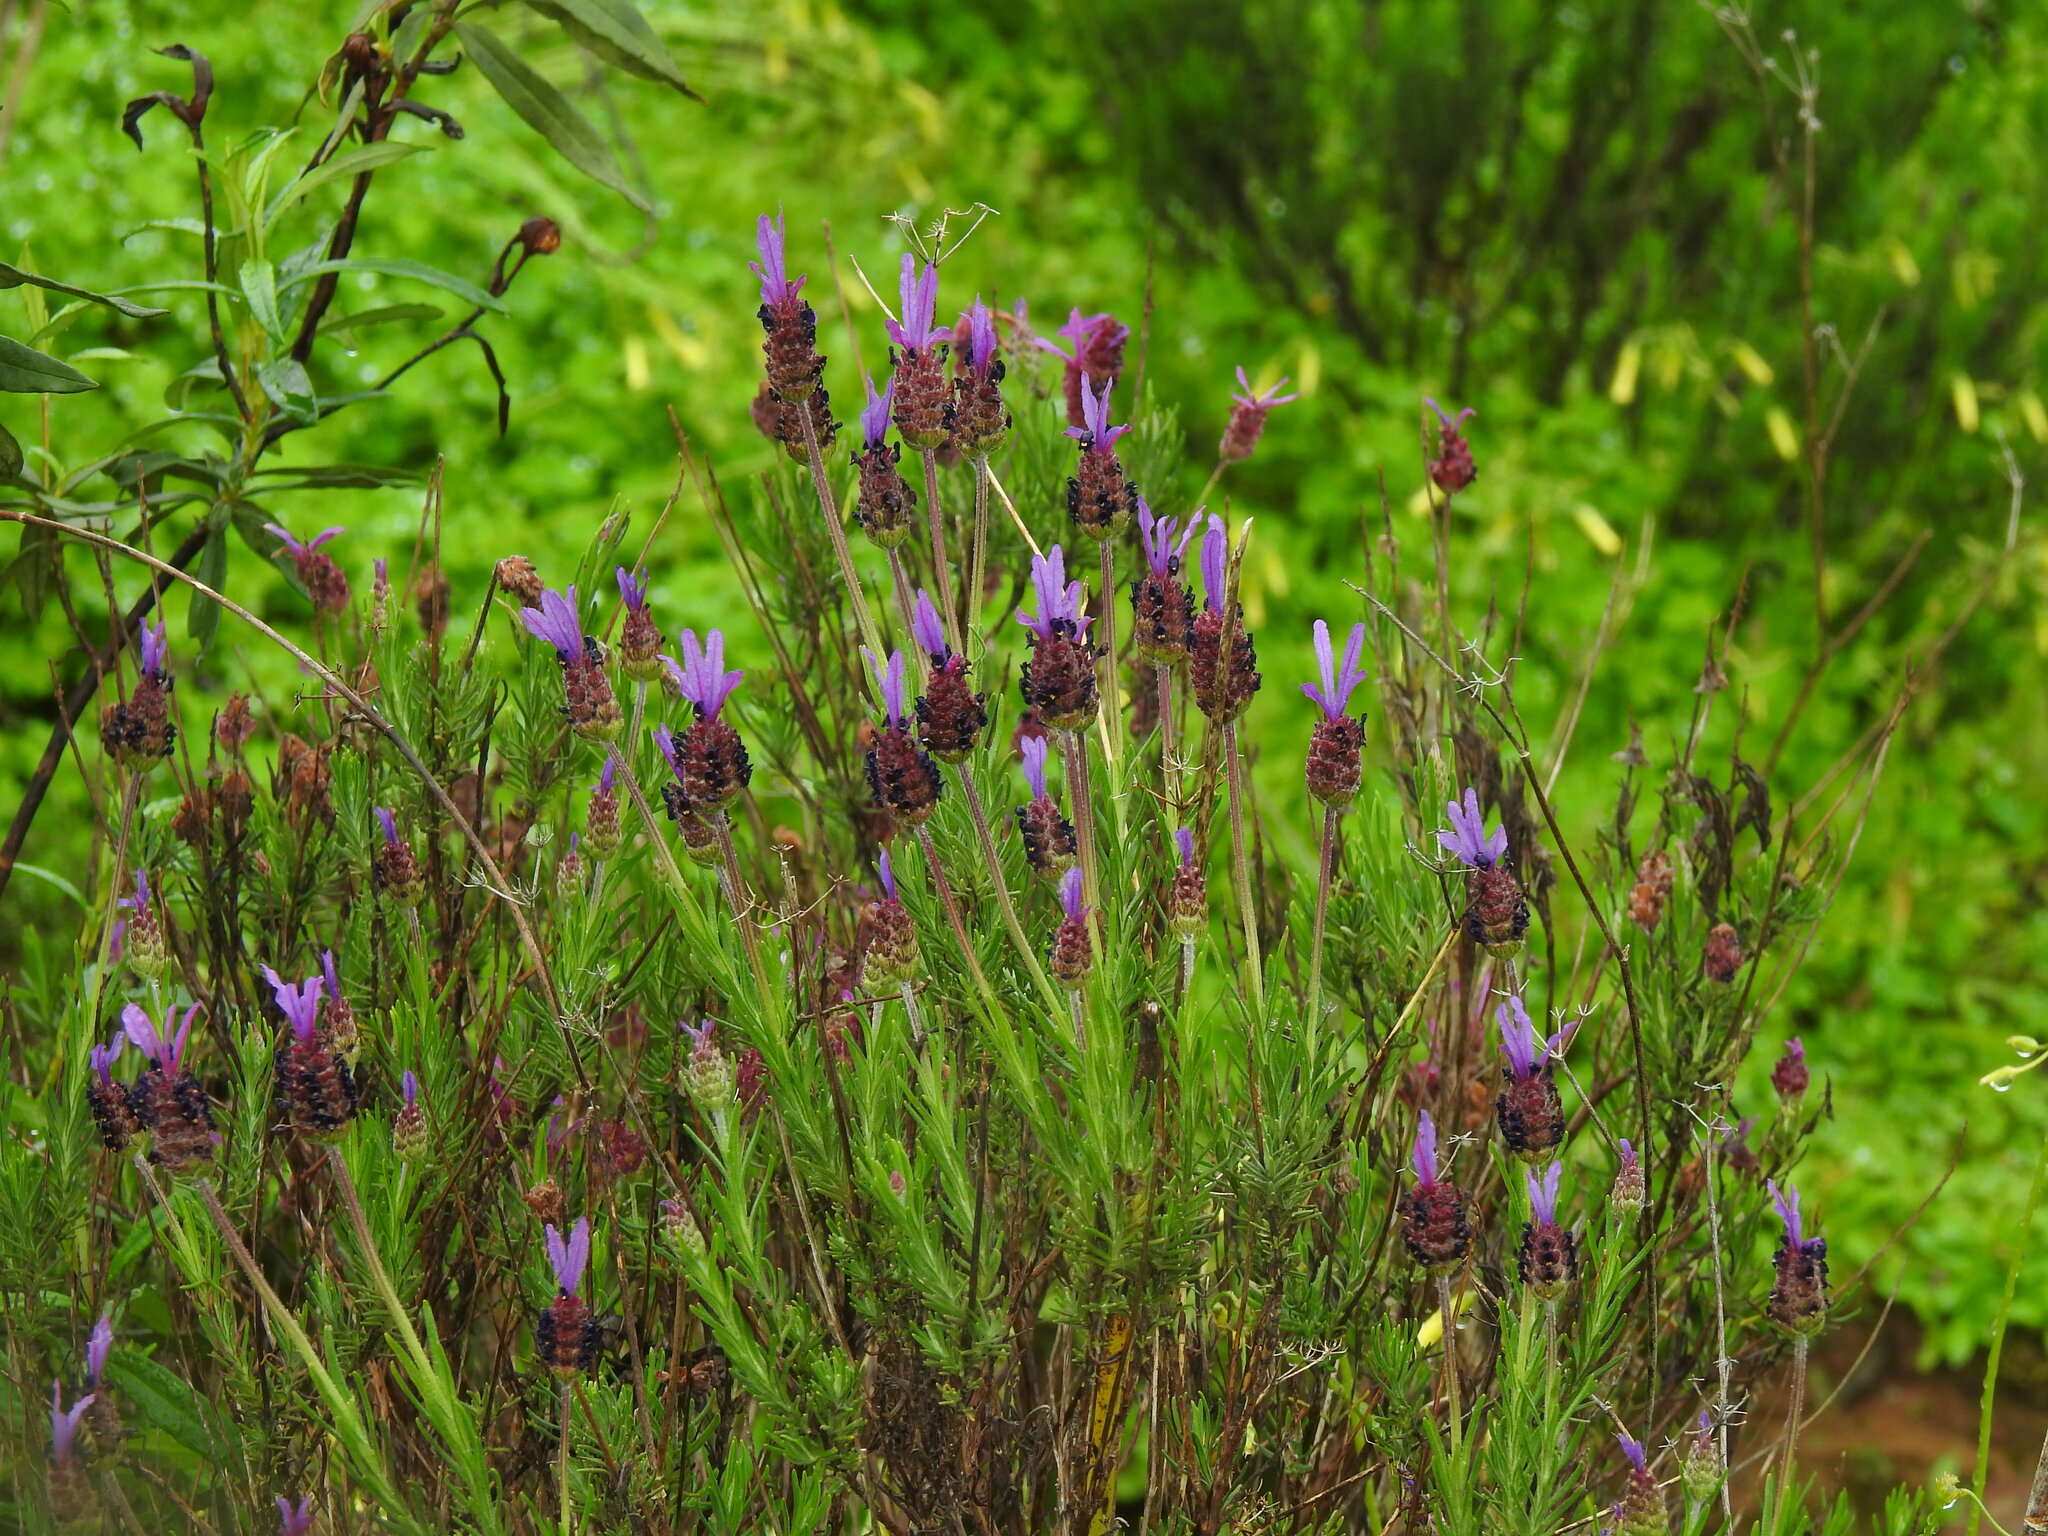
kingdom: Plantae
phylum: Tracheophyta
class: Magnoliopsida
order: Lamiales
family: Lamiaceae
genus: Lavandula
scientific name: Lavandula pedunculata
